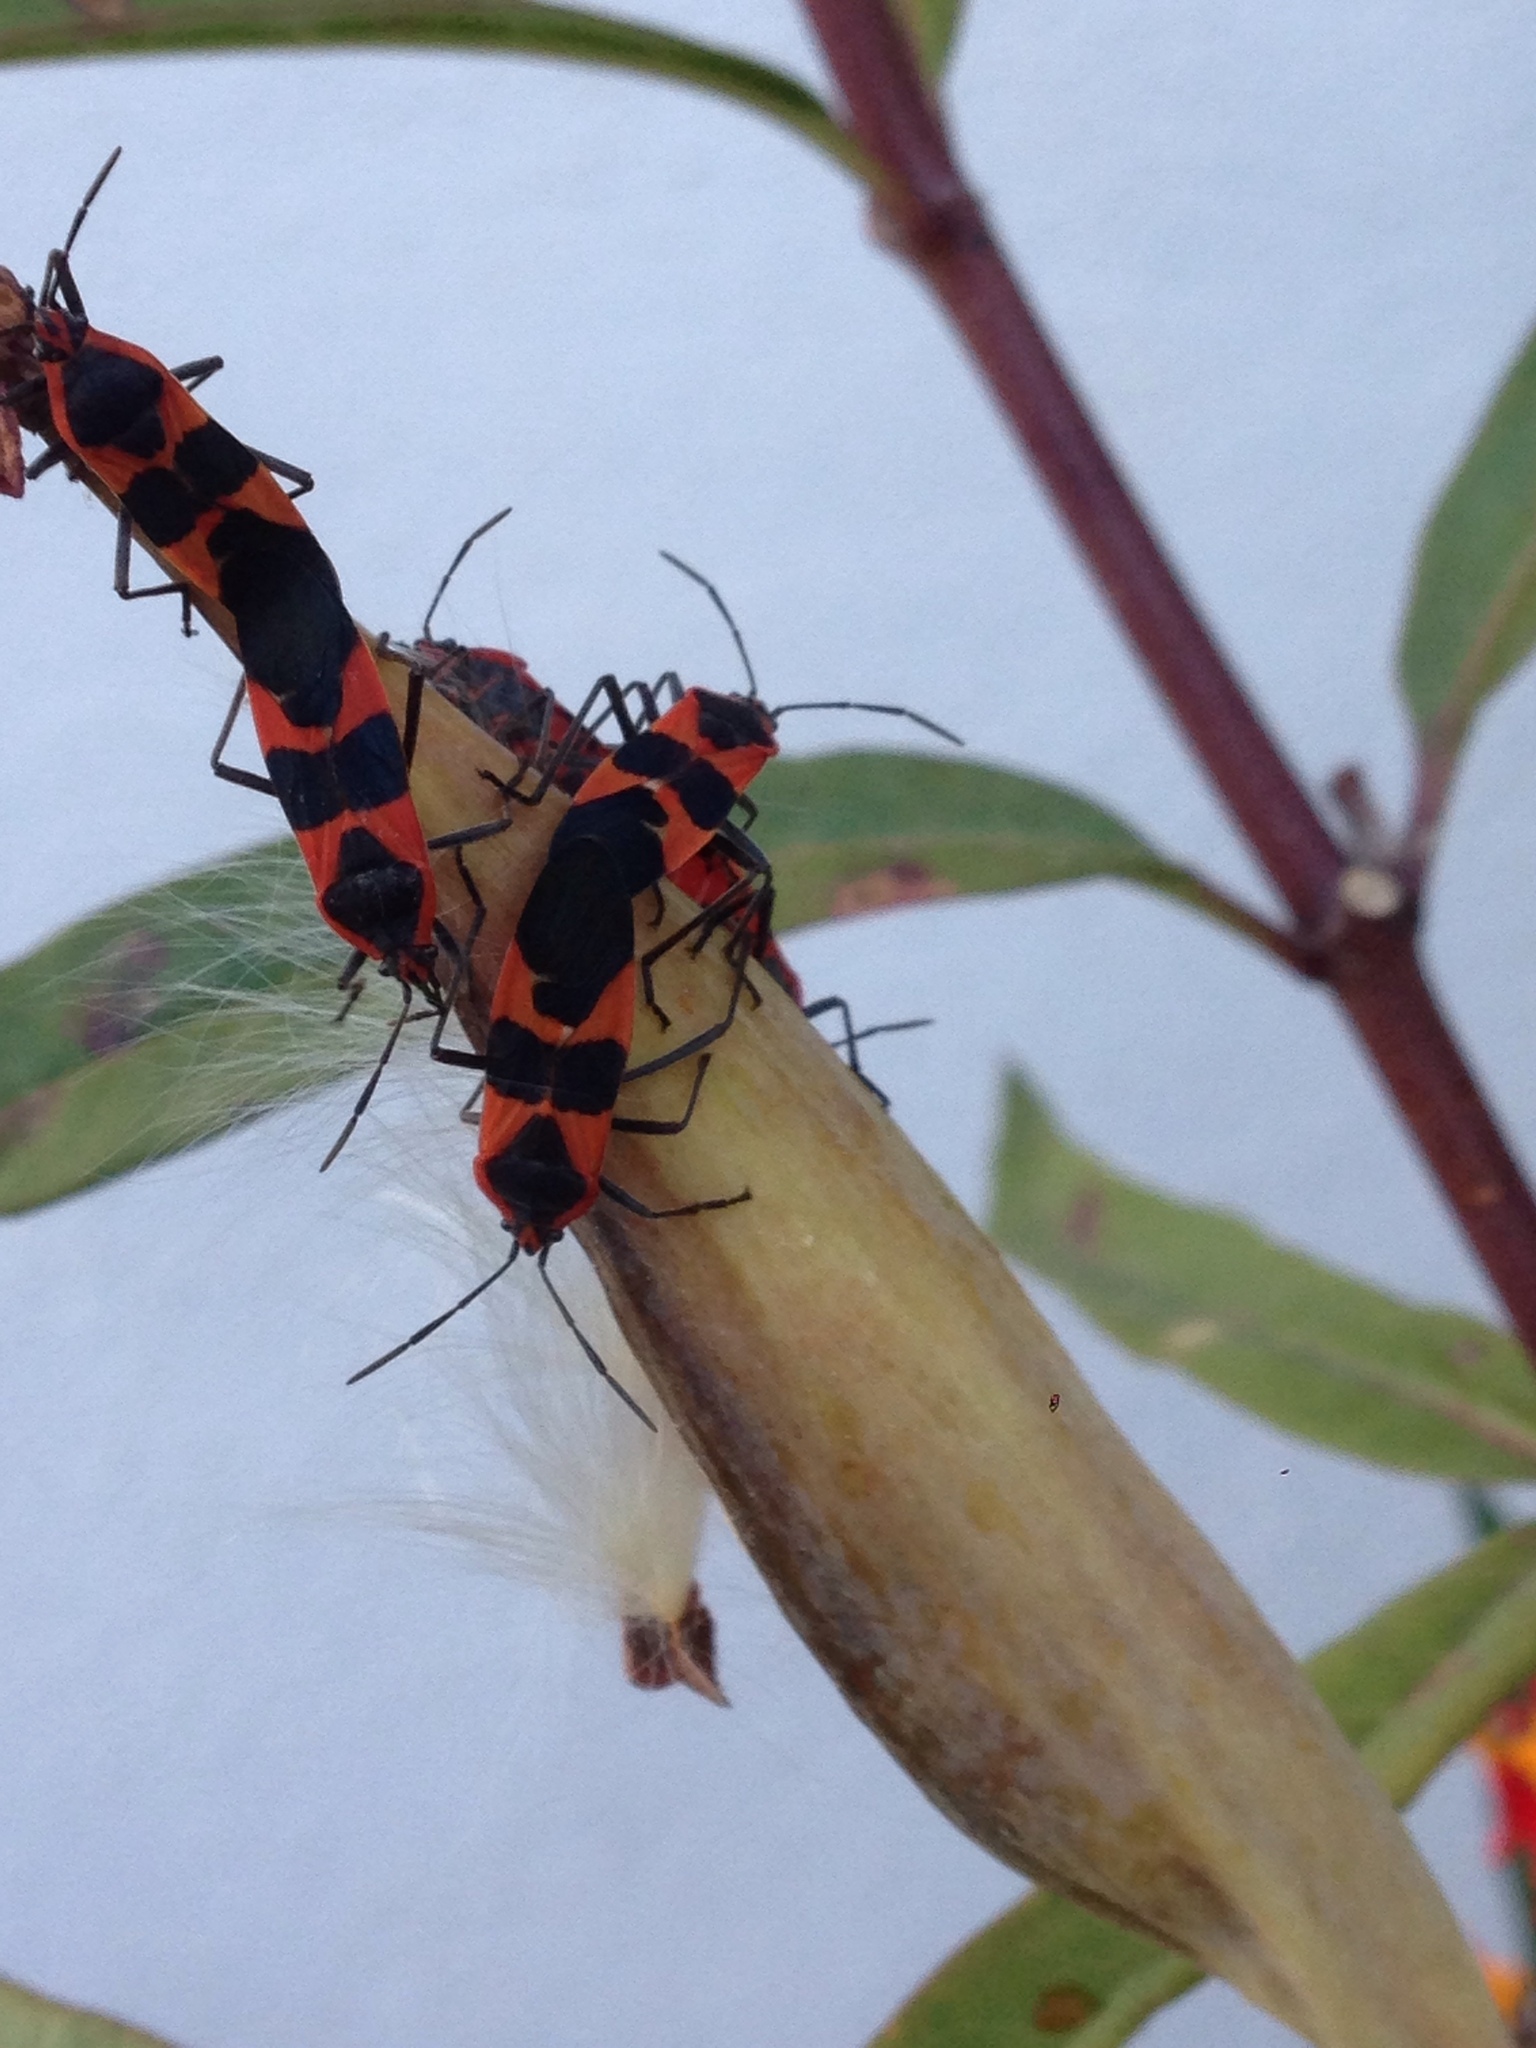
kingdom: Animalia
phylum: Arthropoda
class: Insecta
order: Hemiptera
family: Lygaeidae
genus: Oncopeltus
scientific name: Oncopeltus fasciatus
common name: Large milkweed bug
